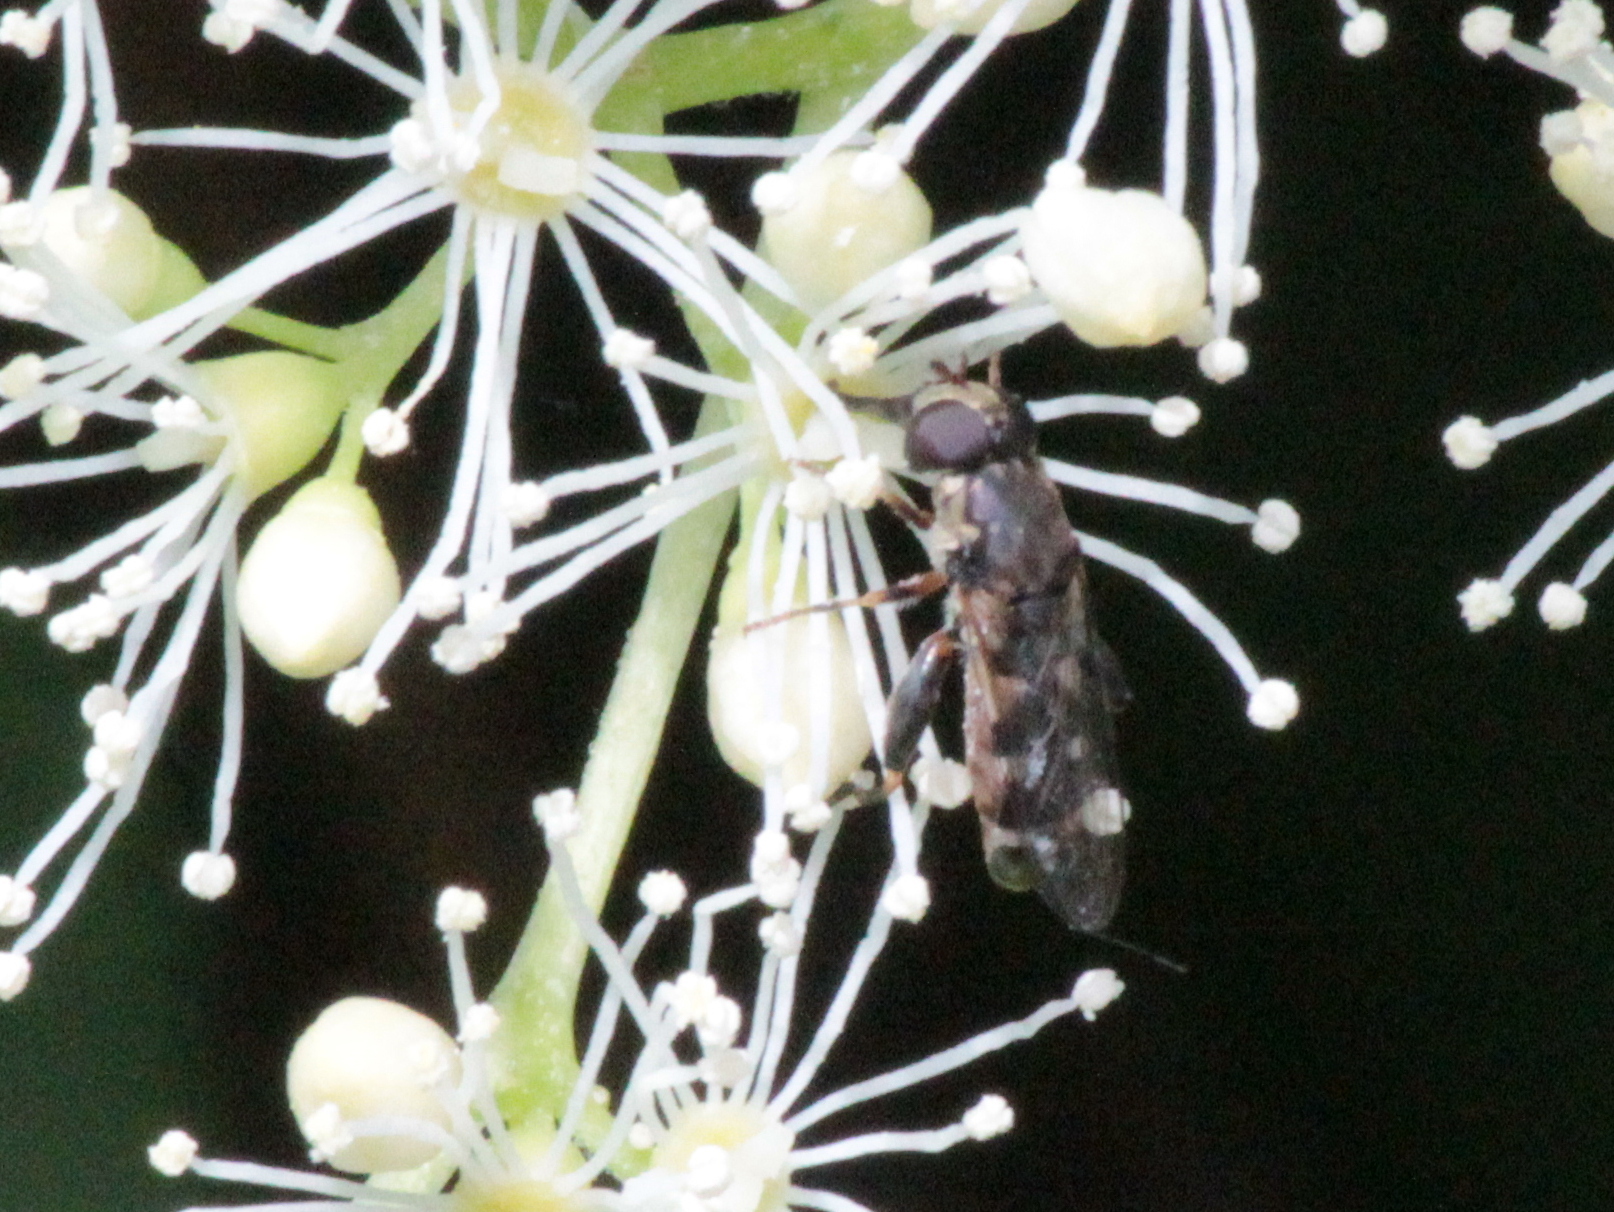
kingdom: Animalia
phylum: Arthropoda
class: Insecta
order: Diptera
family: Syrphidae
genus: Syritta
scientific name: Syritta pipiens
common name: Hover fly
